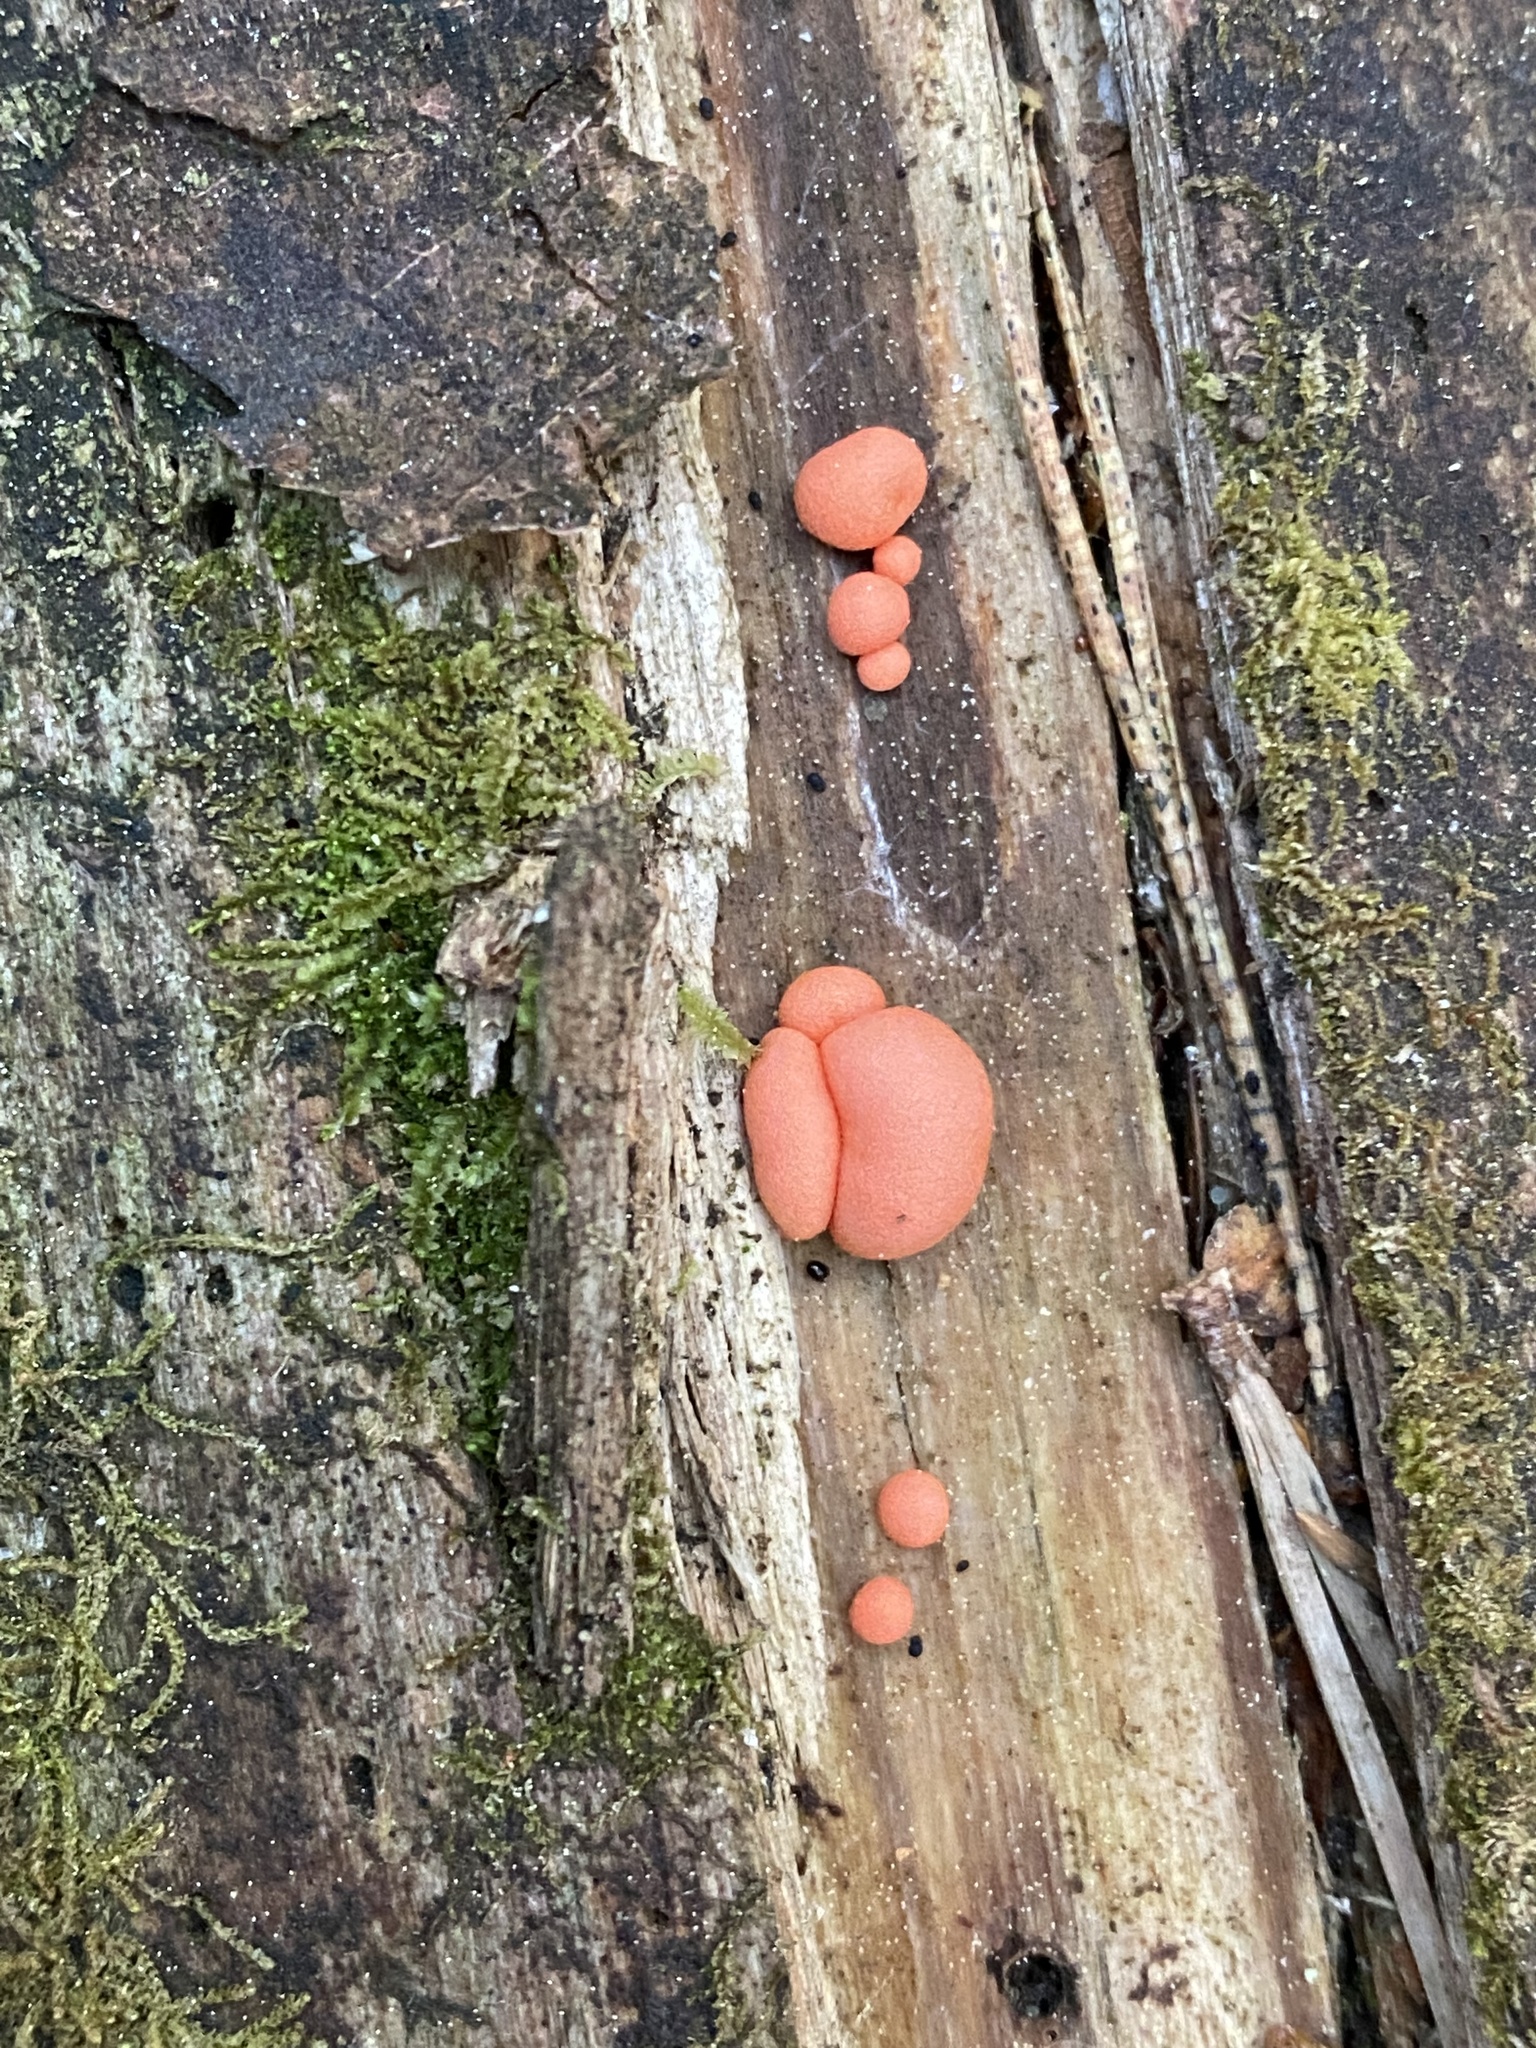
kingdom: Protozoa
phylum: Mycetozoa
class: Myxomycetes
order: Cribrariales
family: Tubiferaceae
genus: Lycogala
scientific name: Lycogala epidendrum
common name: Wolf's milk
